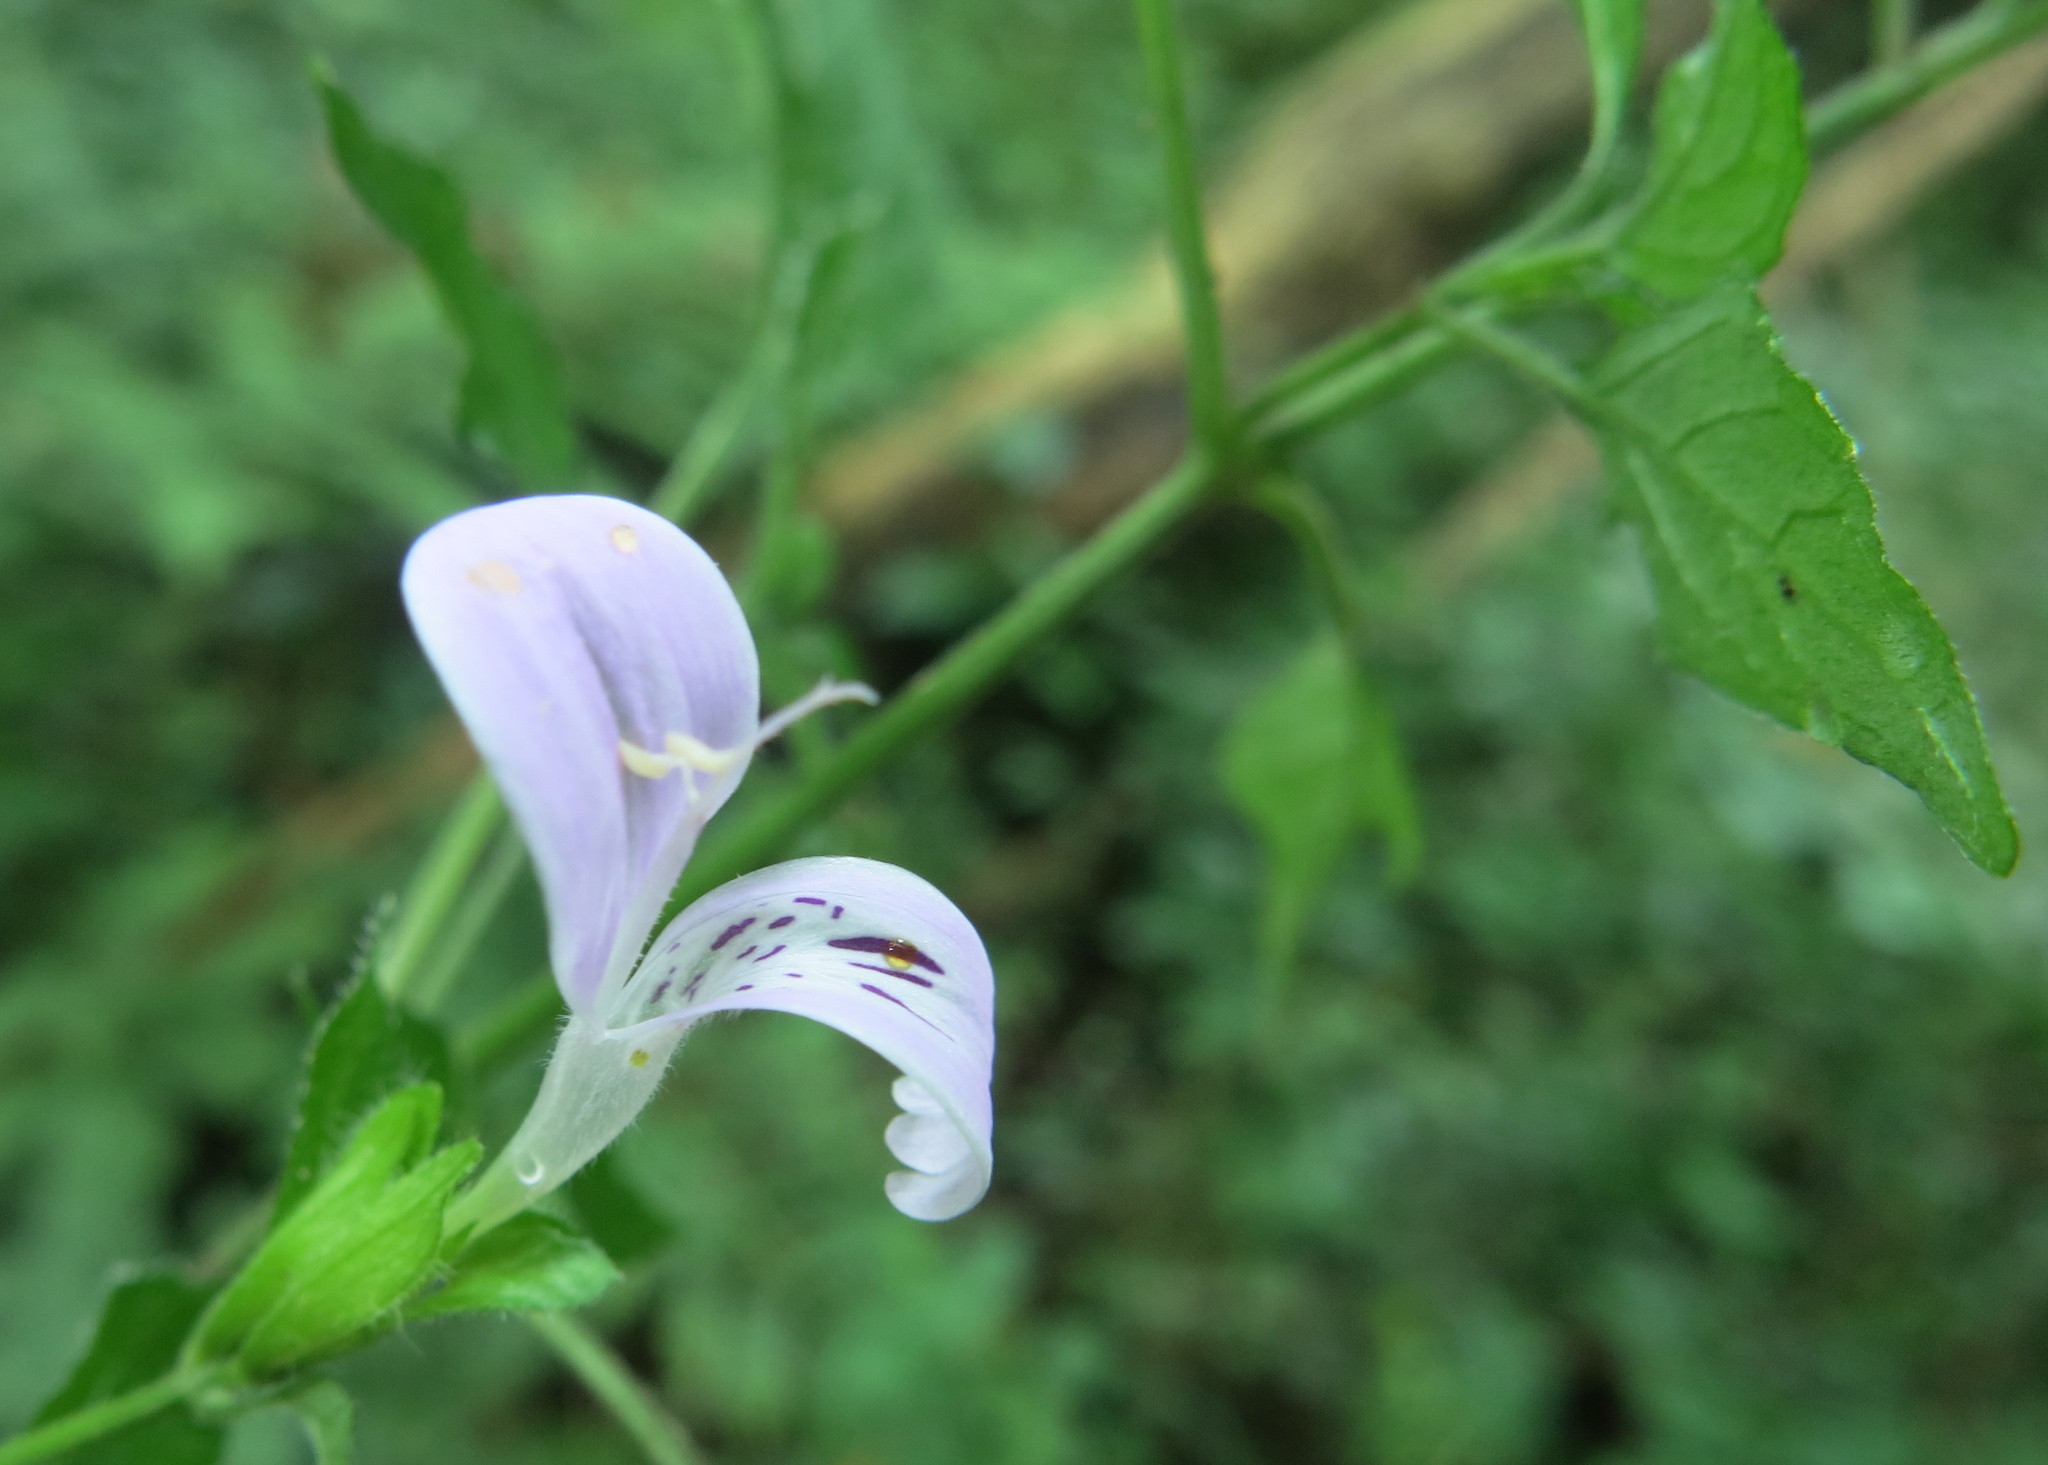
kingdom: Plantae
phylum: Tracheophyta
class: Magnoliopsida
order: Lamiales
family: Acanthaceae
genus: Hypoestes
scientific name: Hypoestes triflora
